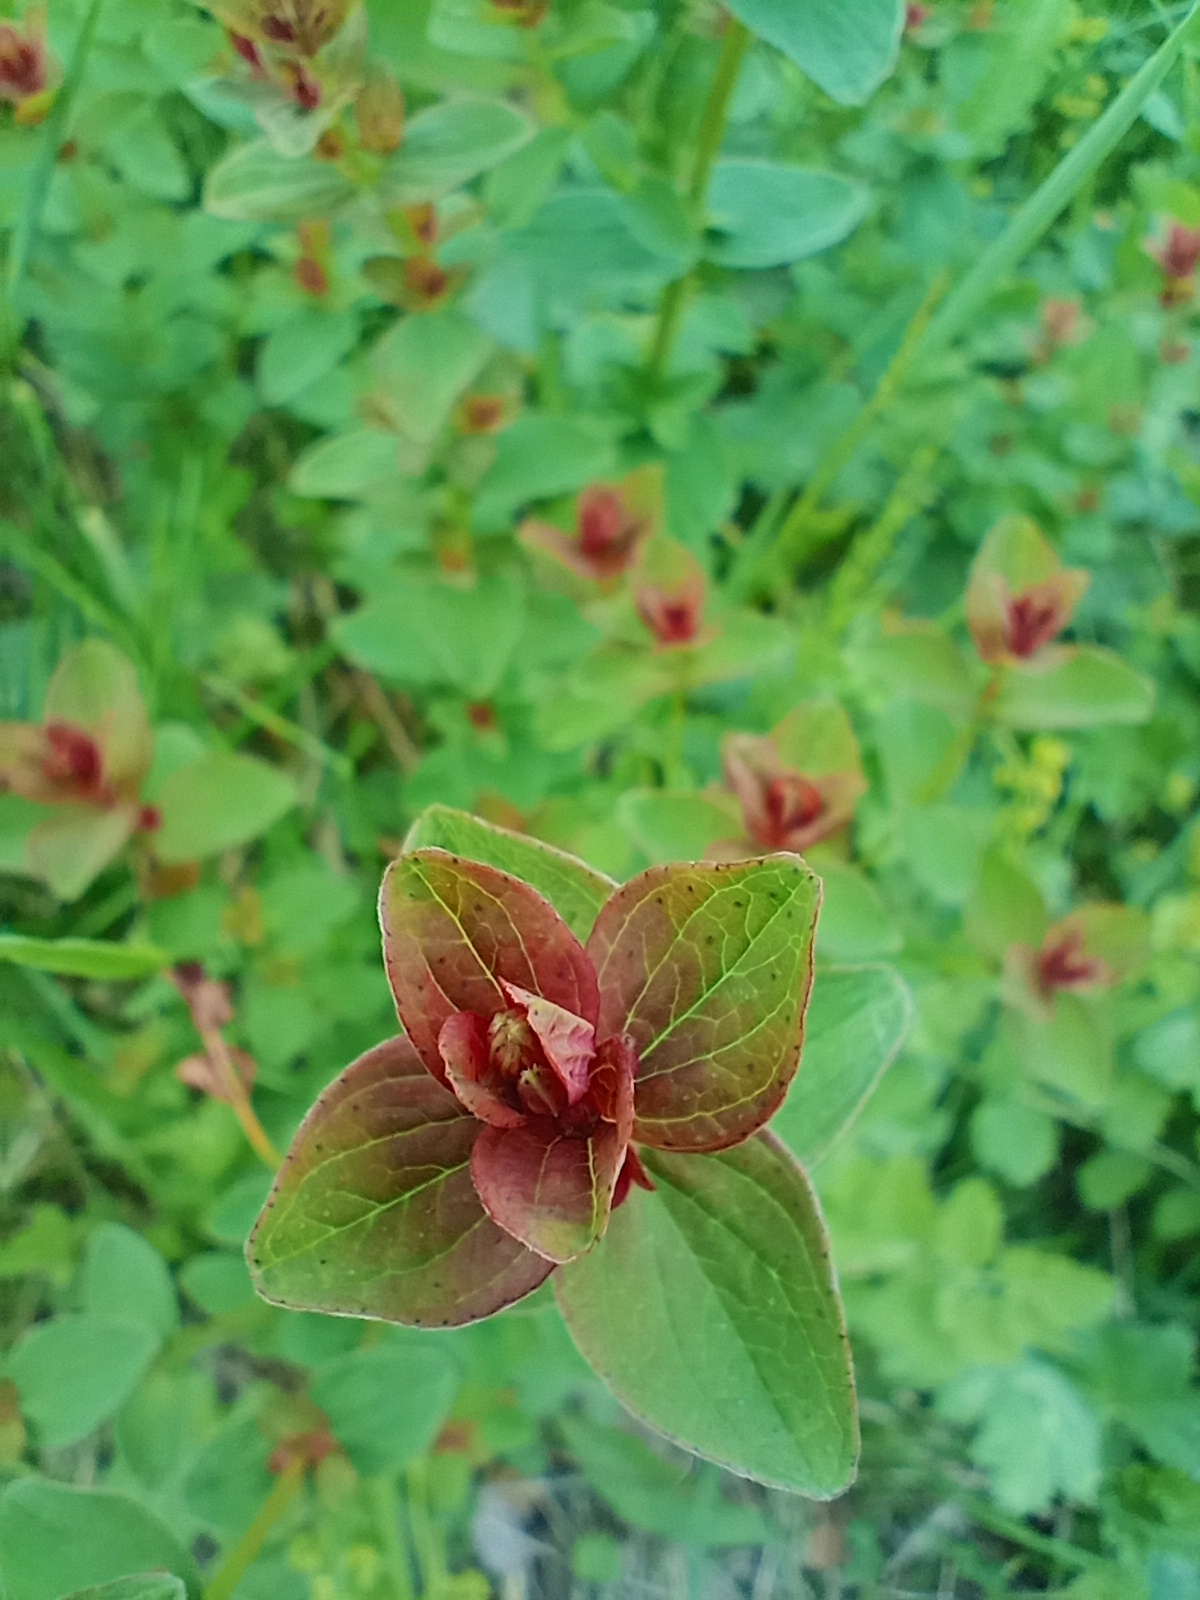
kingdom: Plantae
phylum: Tracheophyta
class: Magnoliopsida
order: Malpighiales
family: Hypericaceae
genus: Hypericum
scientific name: Hypericum maculatum
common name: Imperforate st. john's-wort
